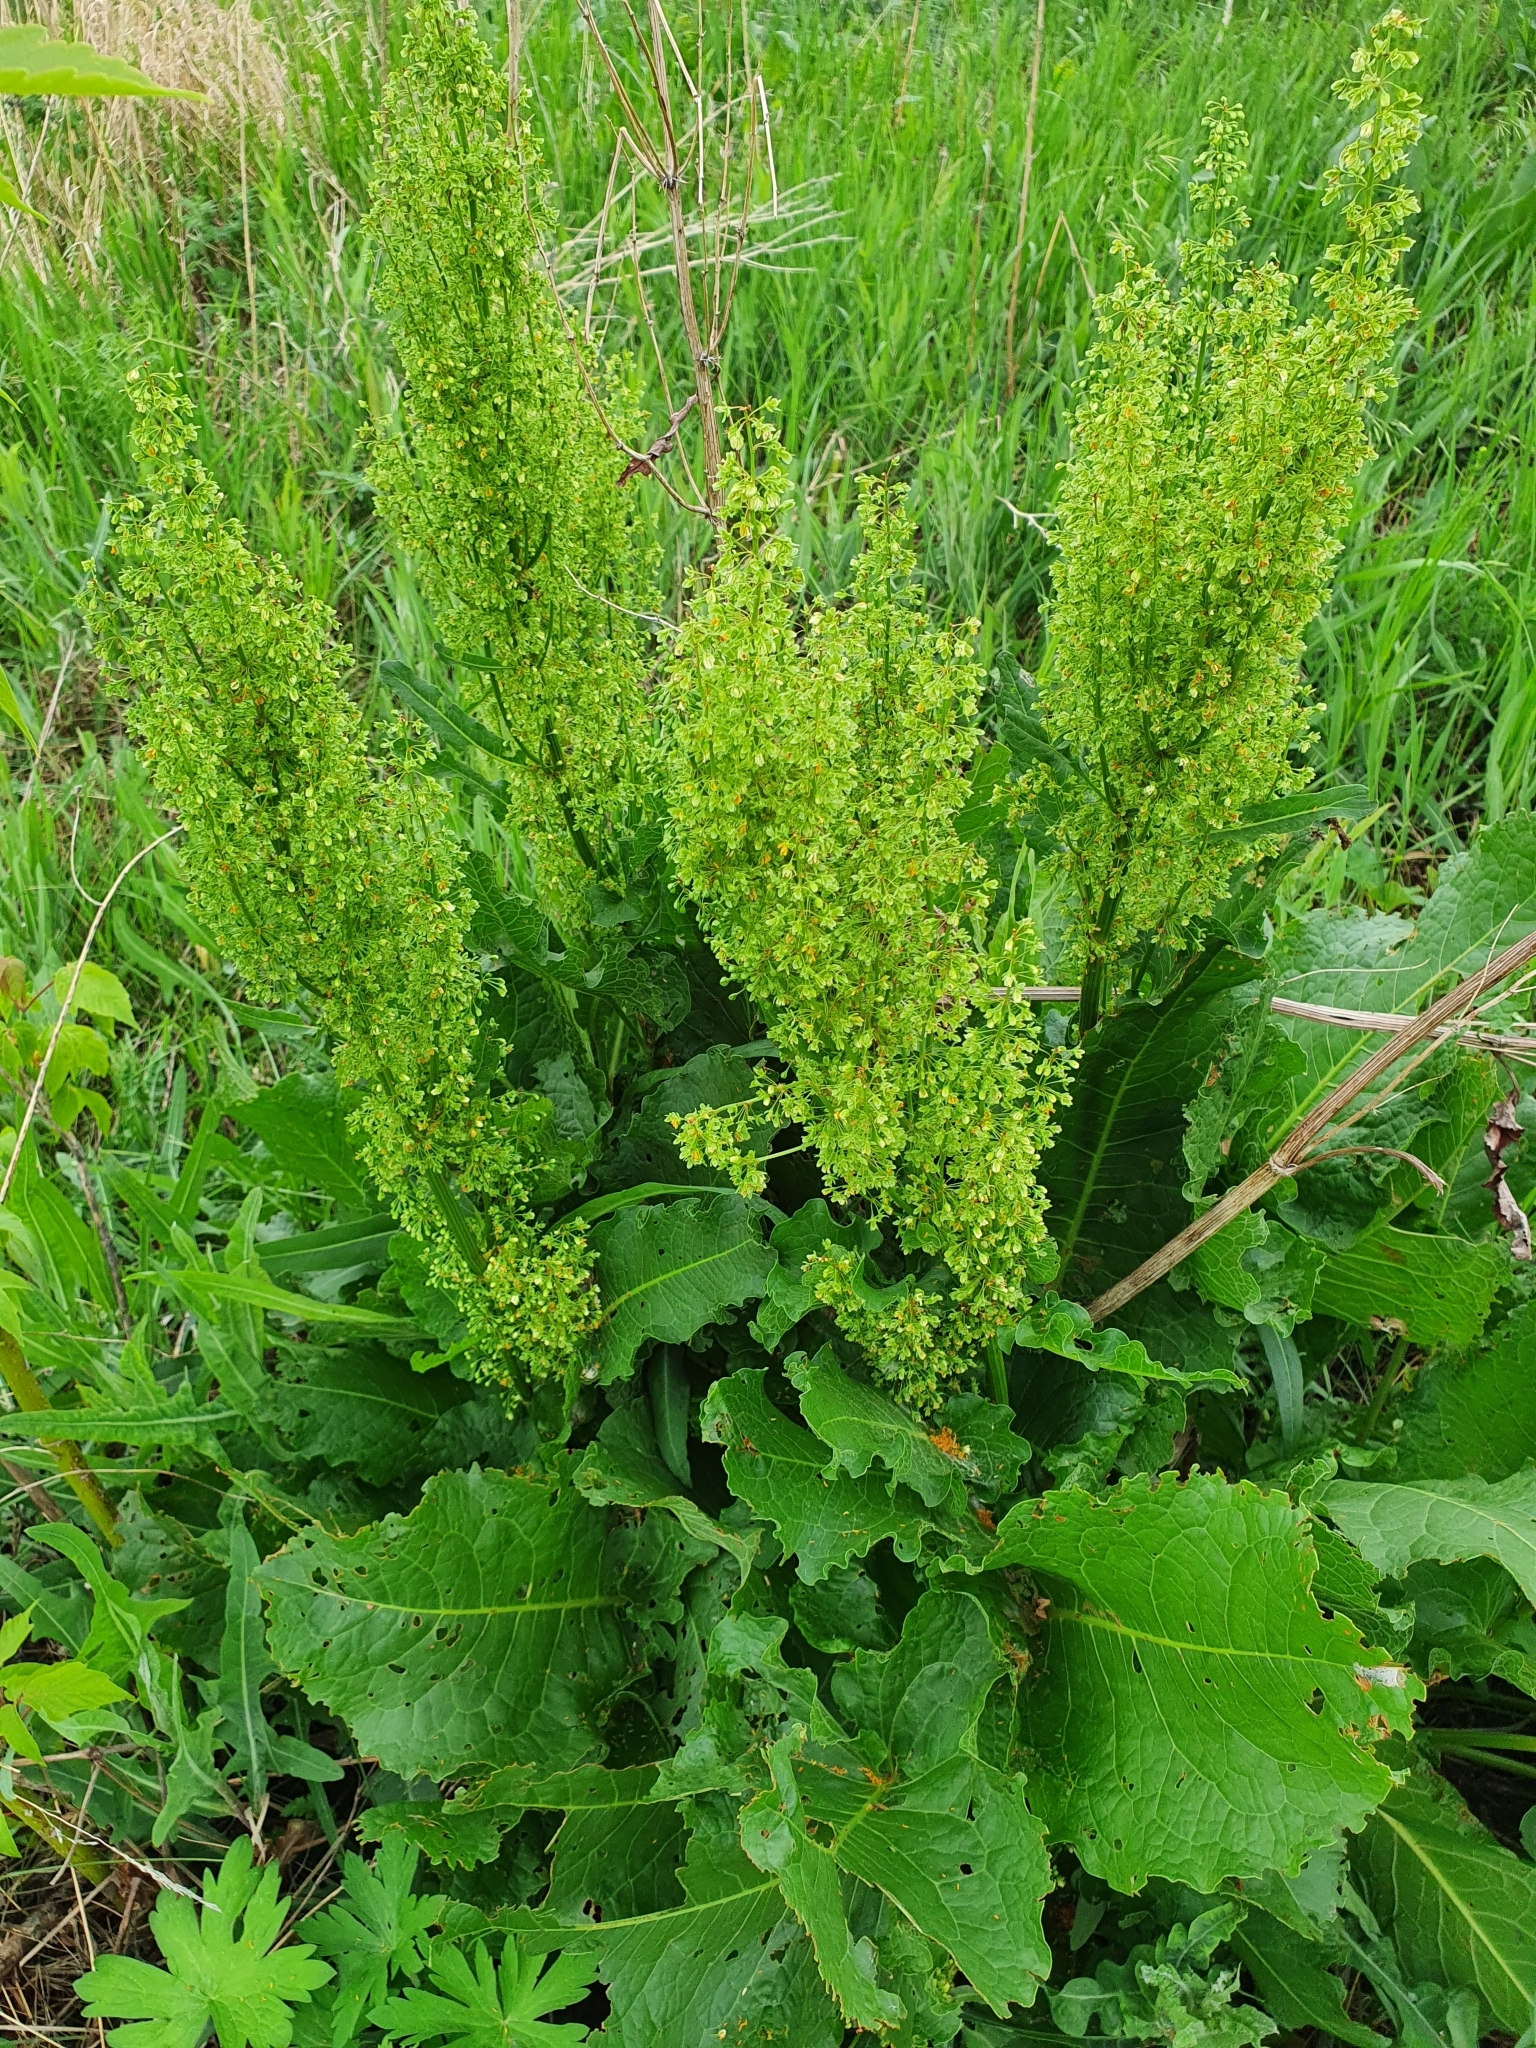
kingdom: Plantae
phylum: Tracheophyta
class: Magnoliopsida
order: Caryophyllales
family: Polygonaceae
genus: Rumex
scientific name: Rumex confertus
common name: Russian dock
